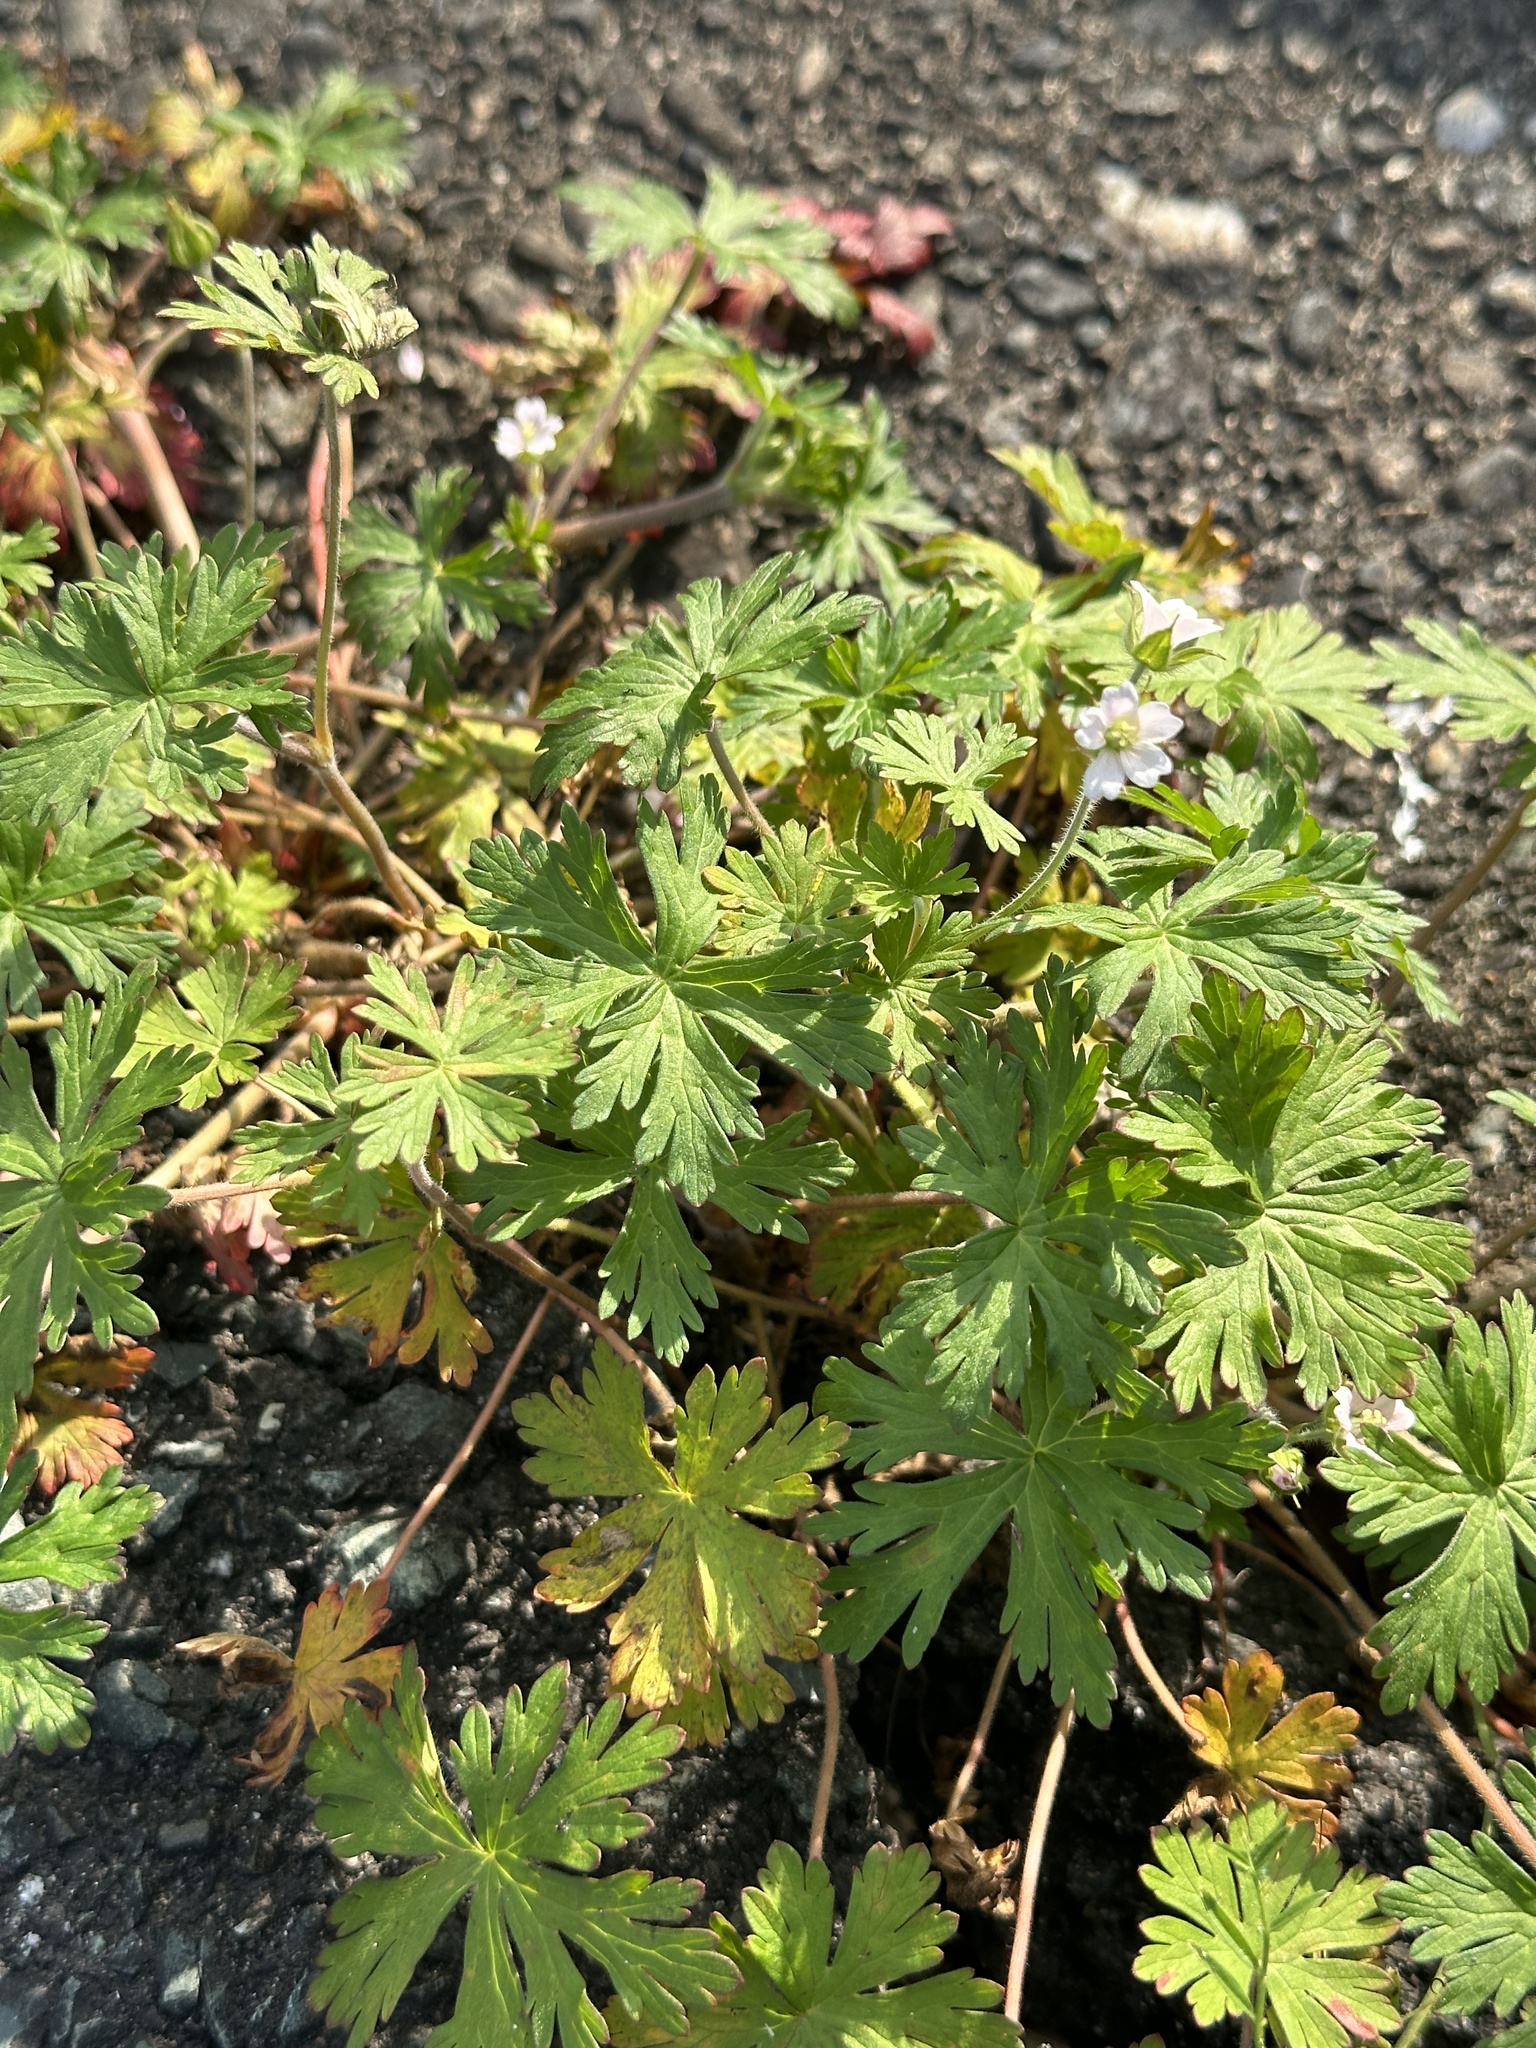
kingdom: Plantae
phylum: Tracheophyta
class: Magnoliopsida
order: Geraniales
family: Geraniaceae
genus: Geranium
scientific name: Geranium carolinianum
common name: Carolina crane's-bill
